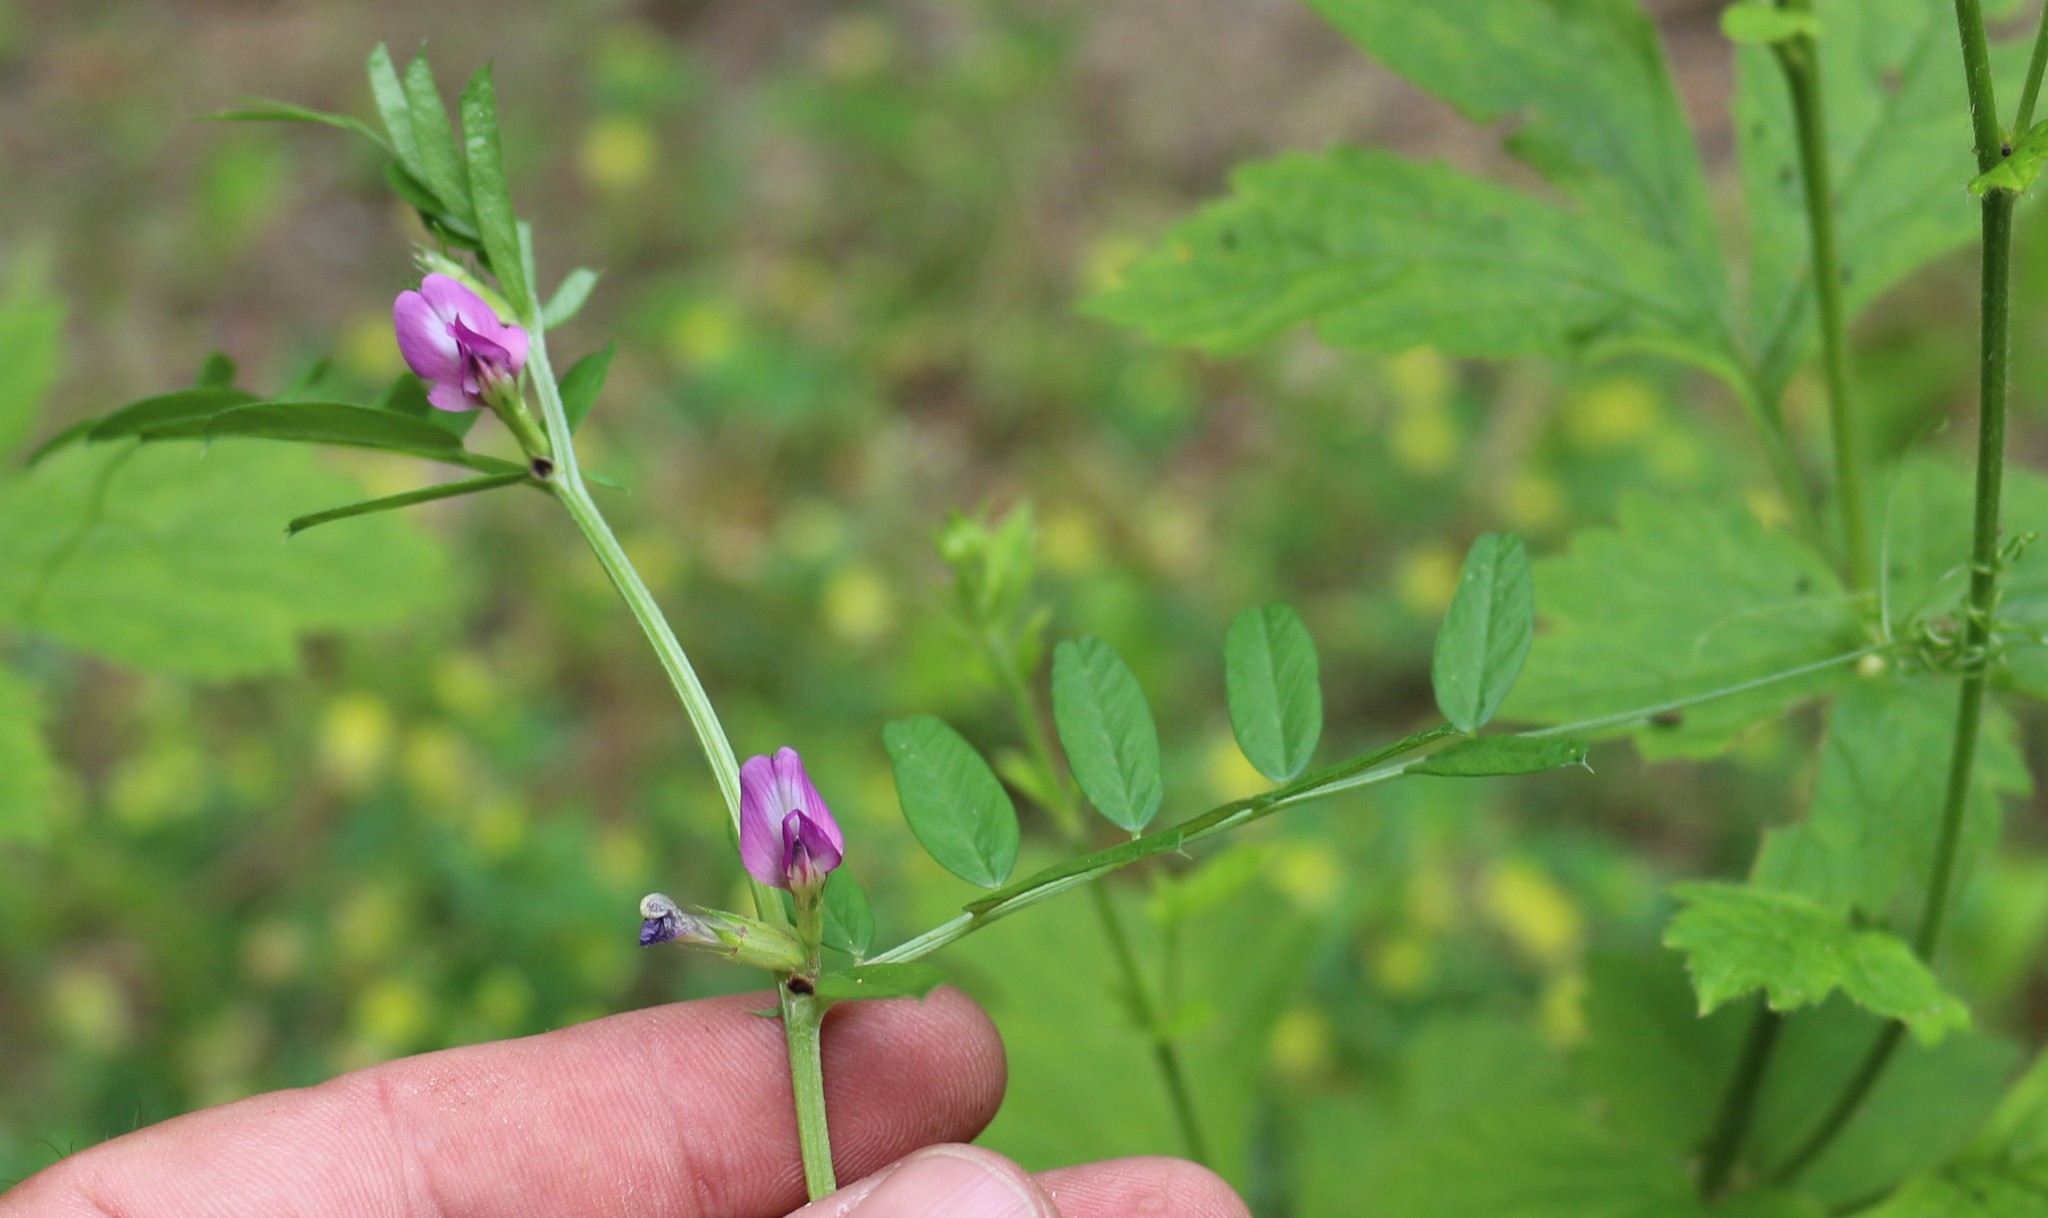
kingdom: Plantae
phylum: Tracheophyta
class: Magnoliopsida
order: Fabales
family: Fabaceae
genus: Vicia
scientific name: Vicia sativa
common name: Garden vetch
